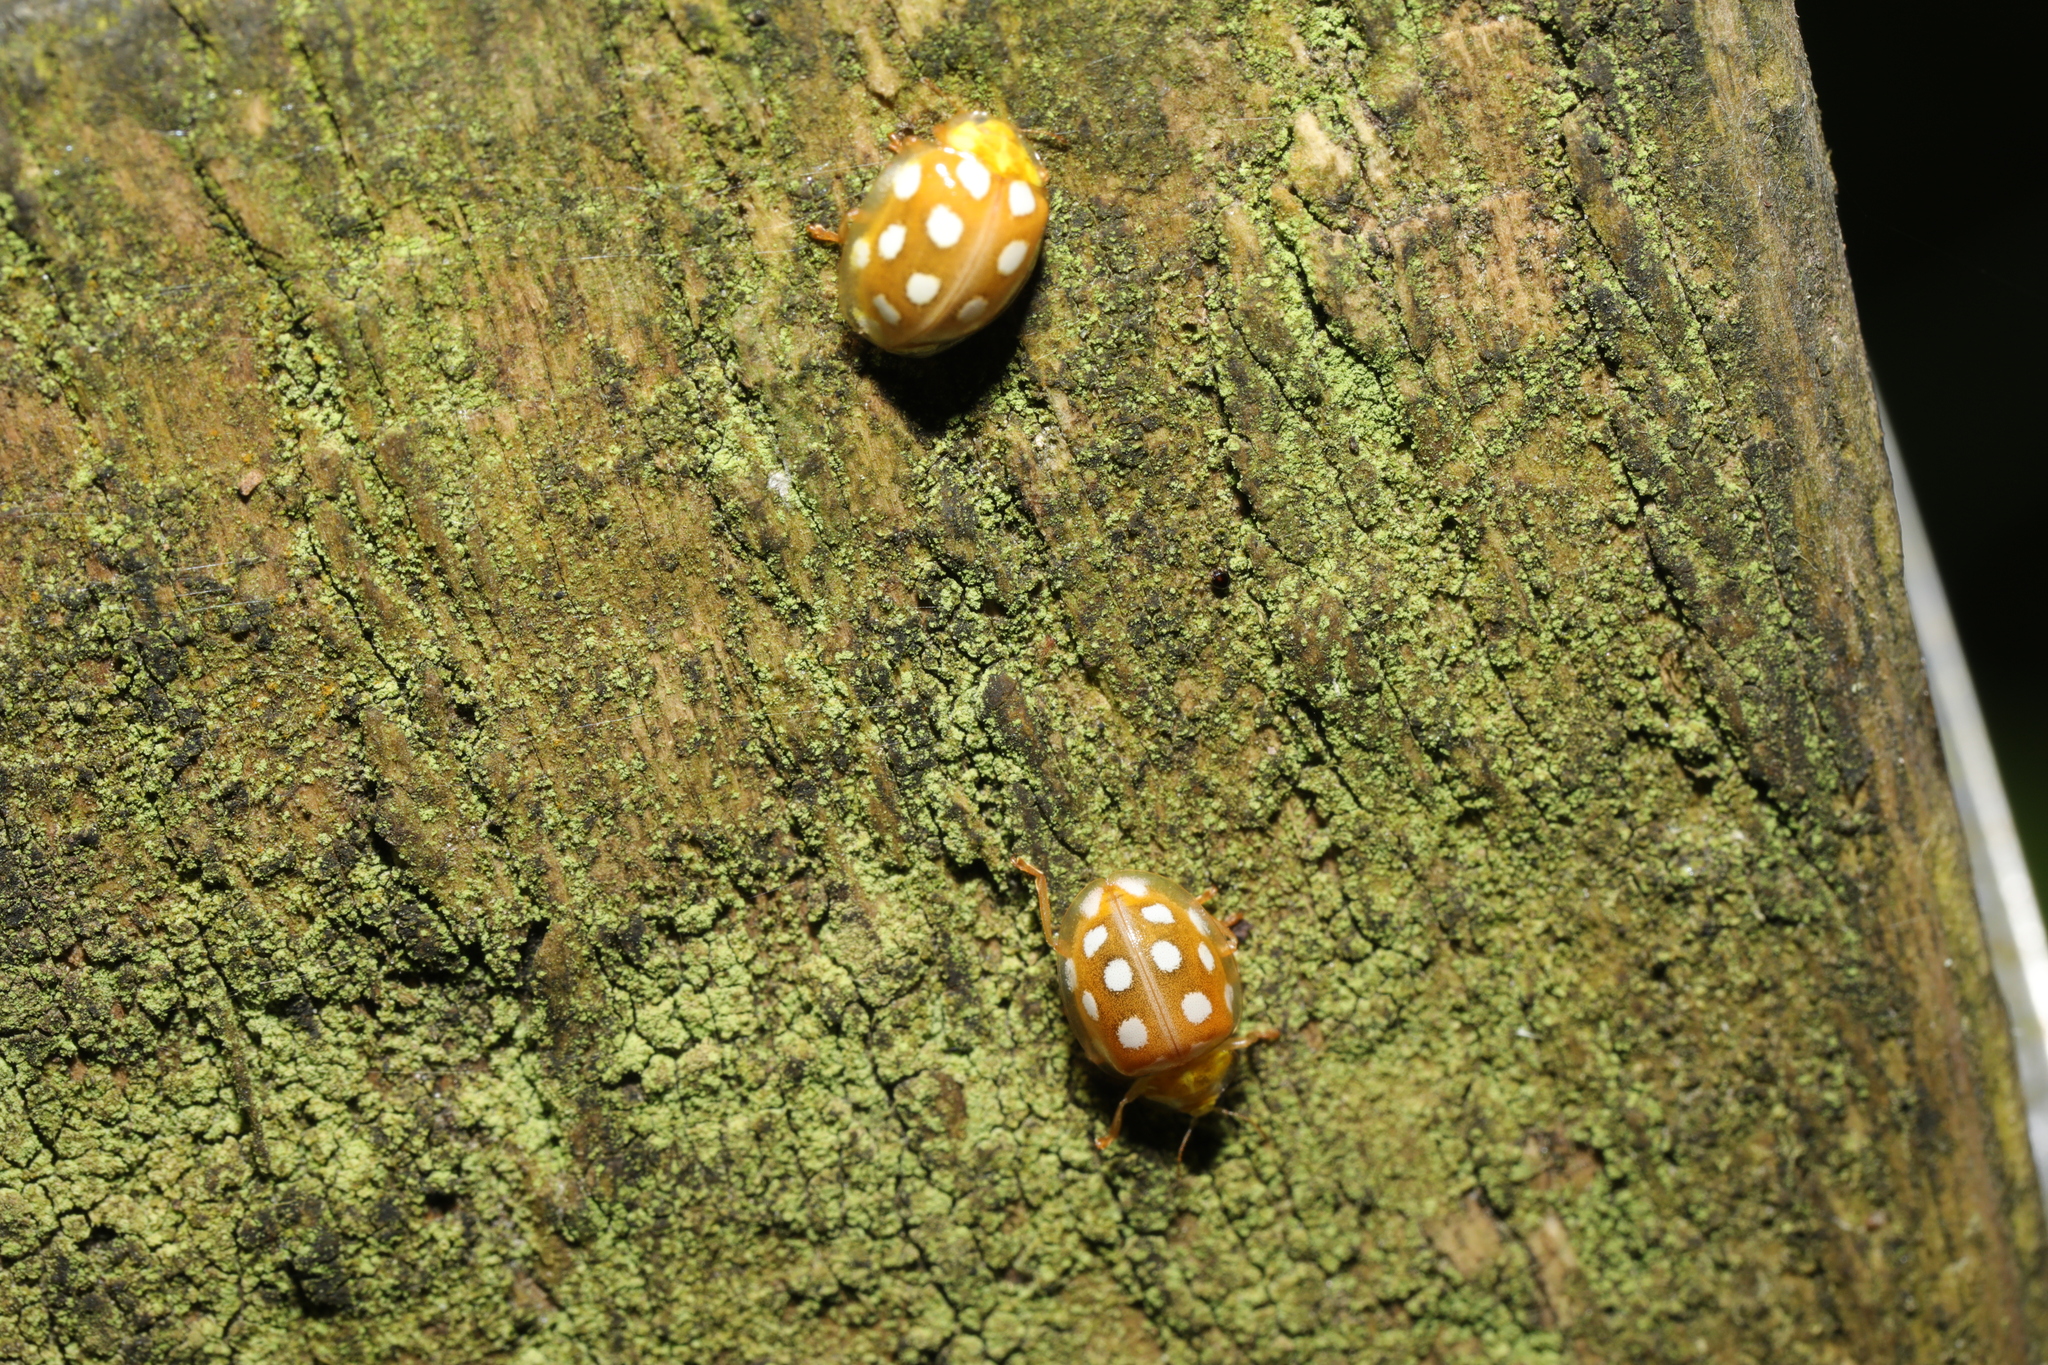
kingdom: Animalia
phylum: Arthropoda
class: Insecta
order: Coleoptera
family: Coccinellidae
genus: Halyzia
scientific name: Halyzia sedecimguttata
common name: Orange ladybird
